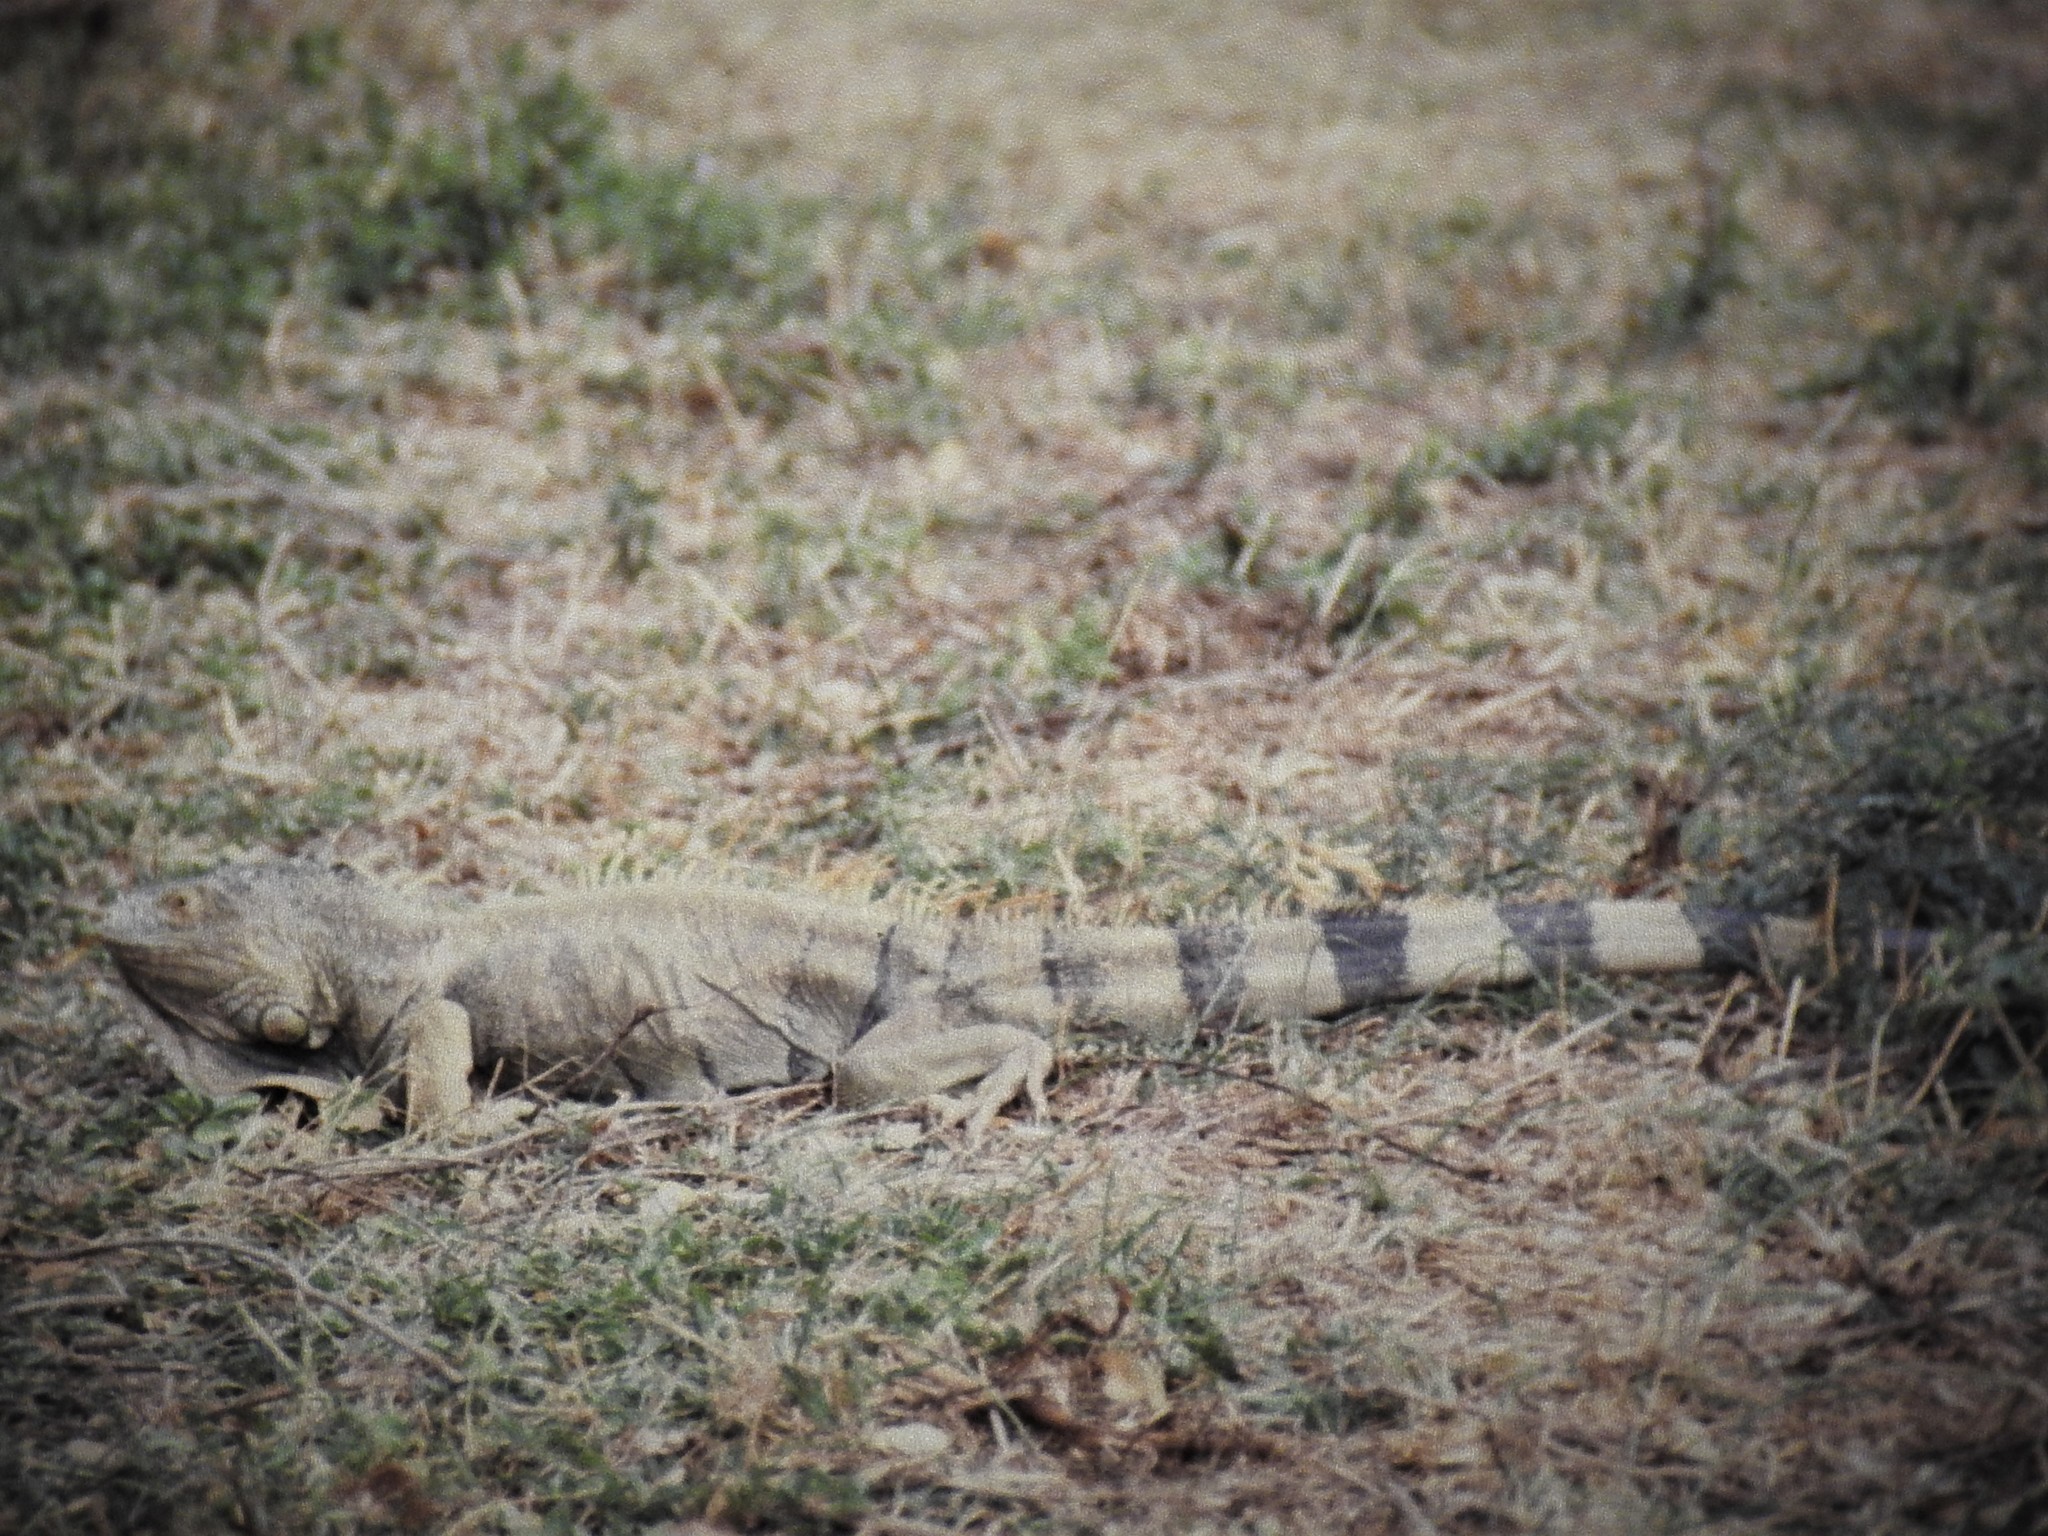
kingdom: Animalia
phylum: Chordata
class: Squamata
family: Iguanidae
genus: Iguana
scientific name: Iguana iguana
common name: Green iguana
